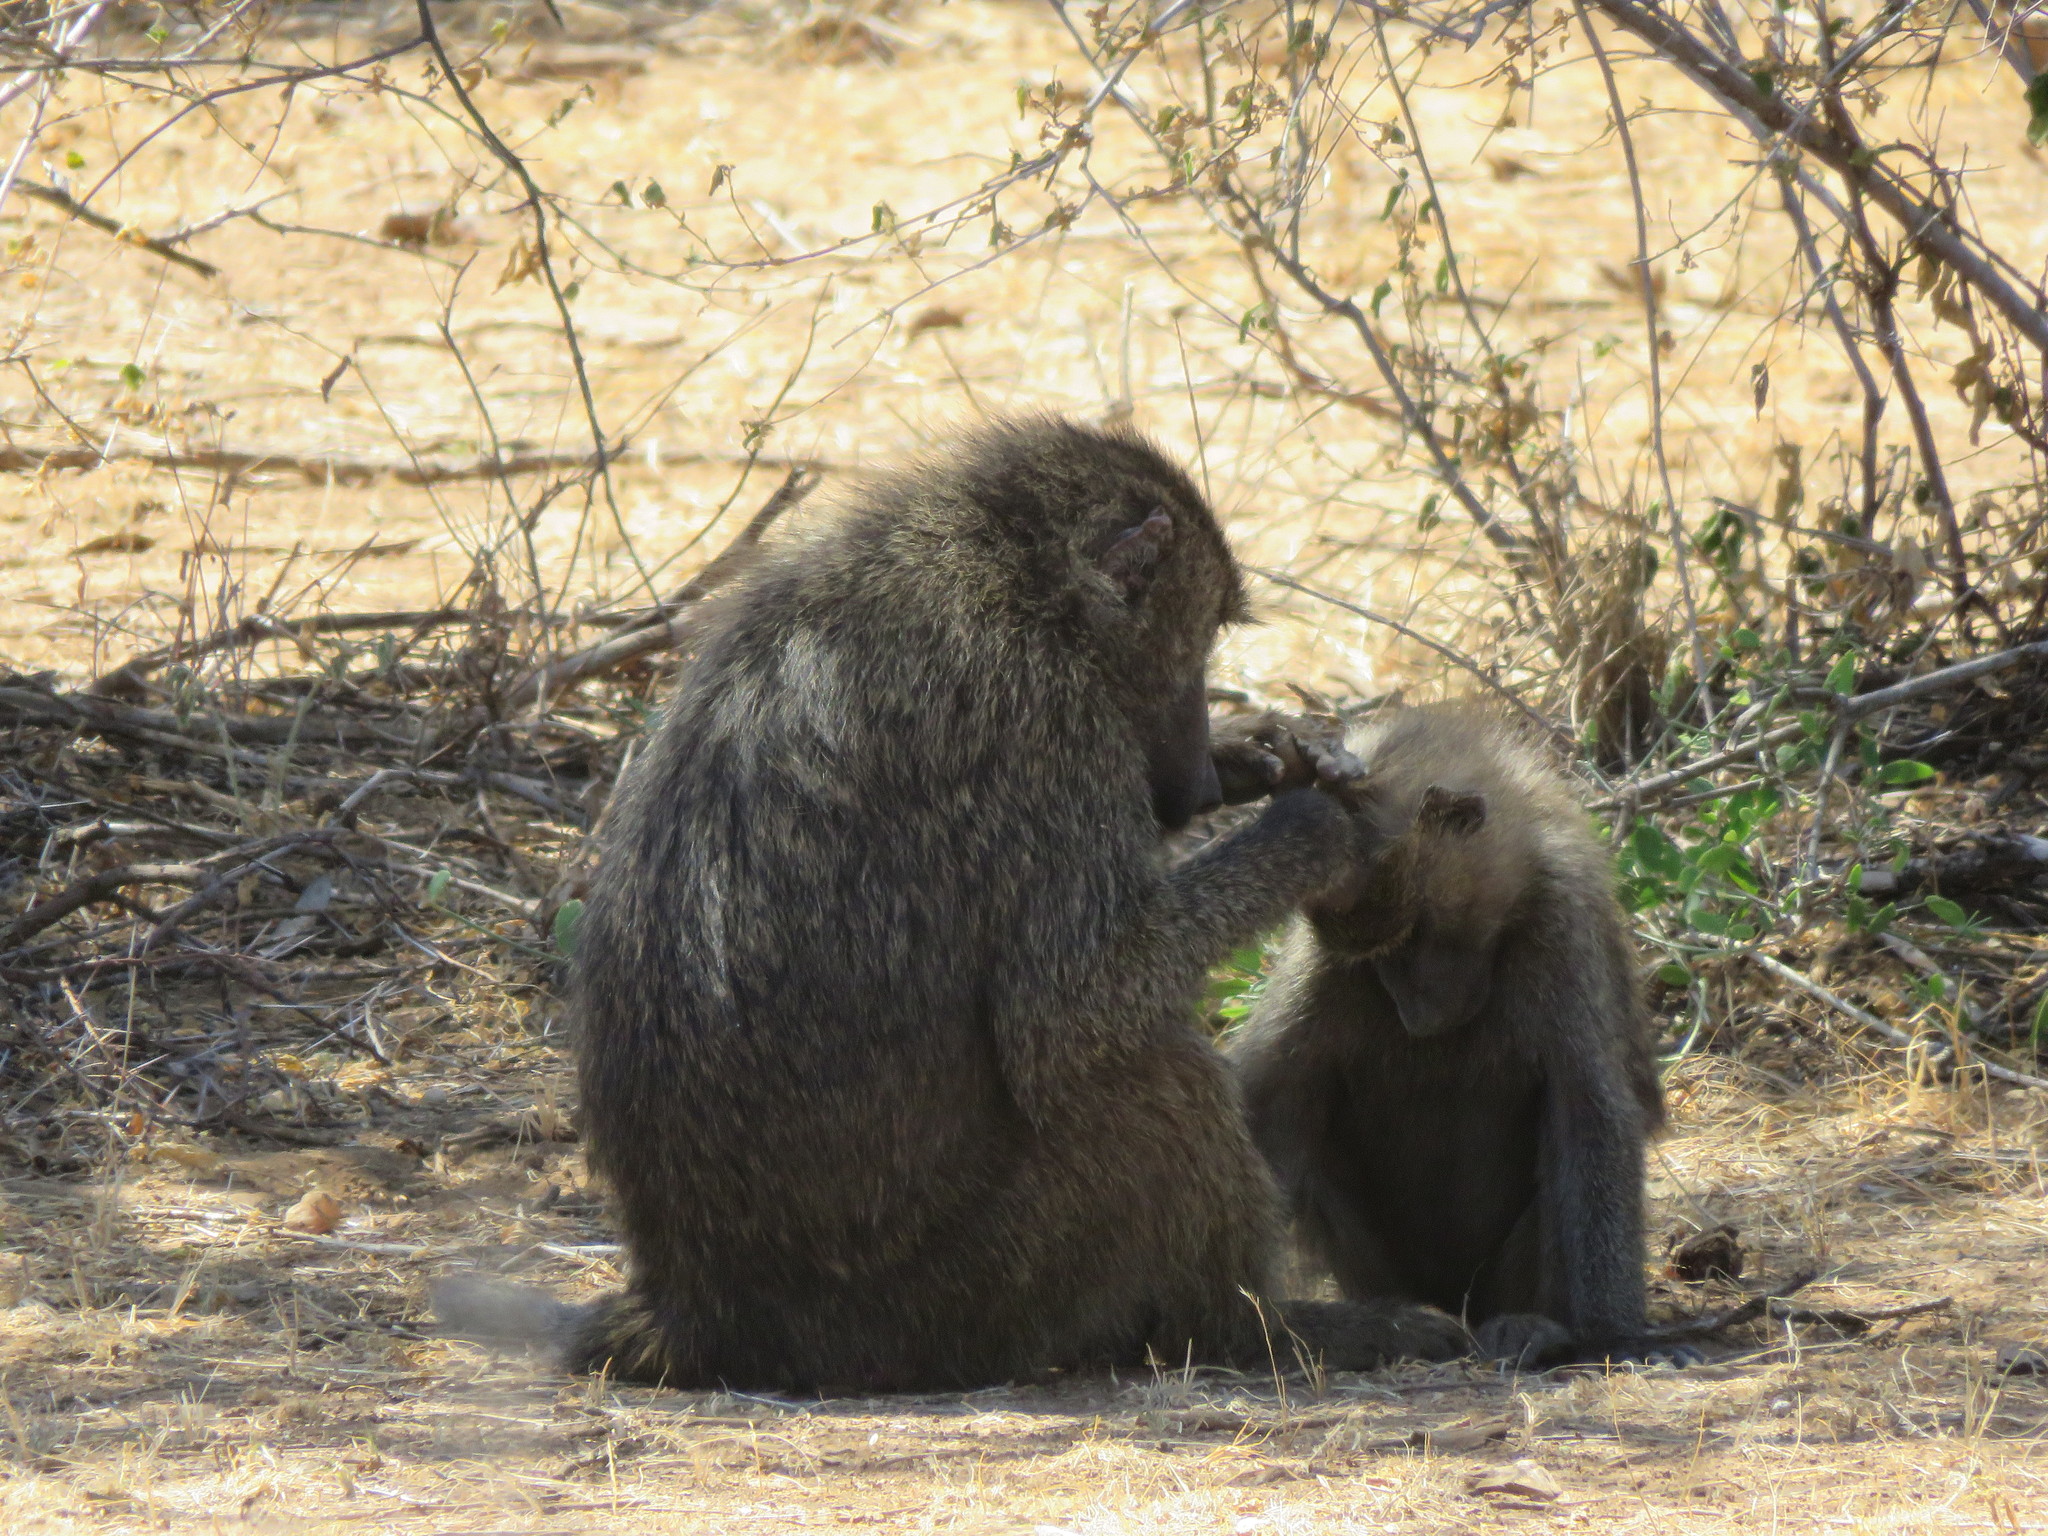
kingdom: Animalia
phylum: Chordata
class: Mammalia
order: Primates
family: Cercopithecidae
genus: Papio
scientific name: Papio anubis
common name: Olive baboon
